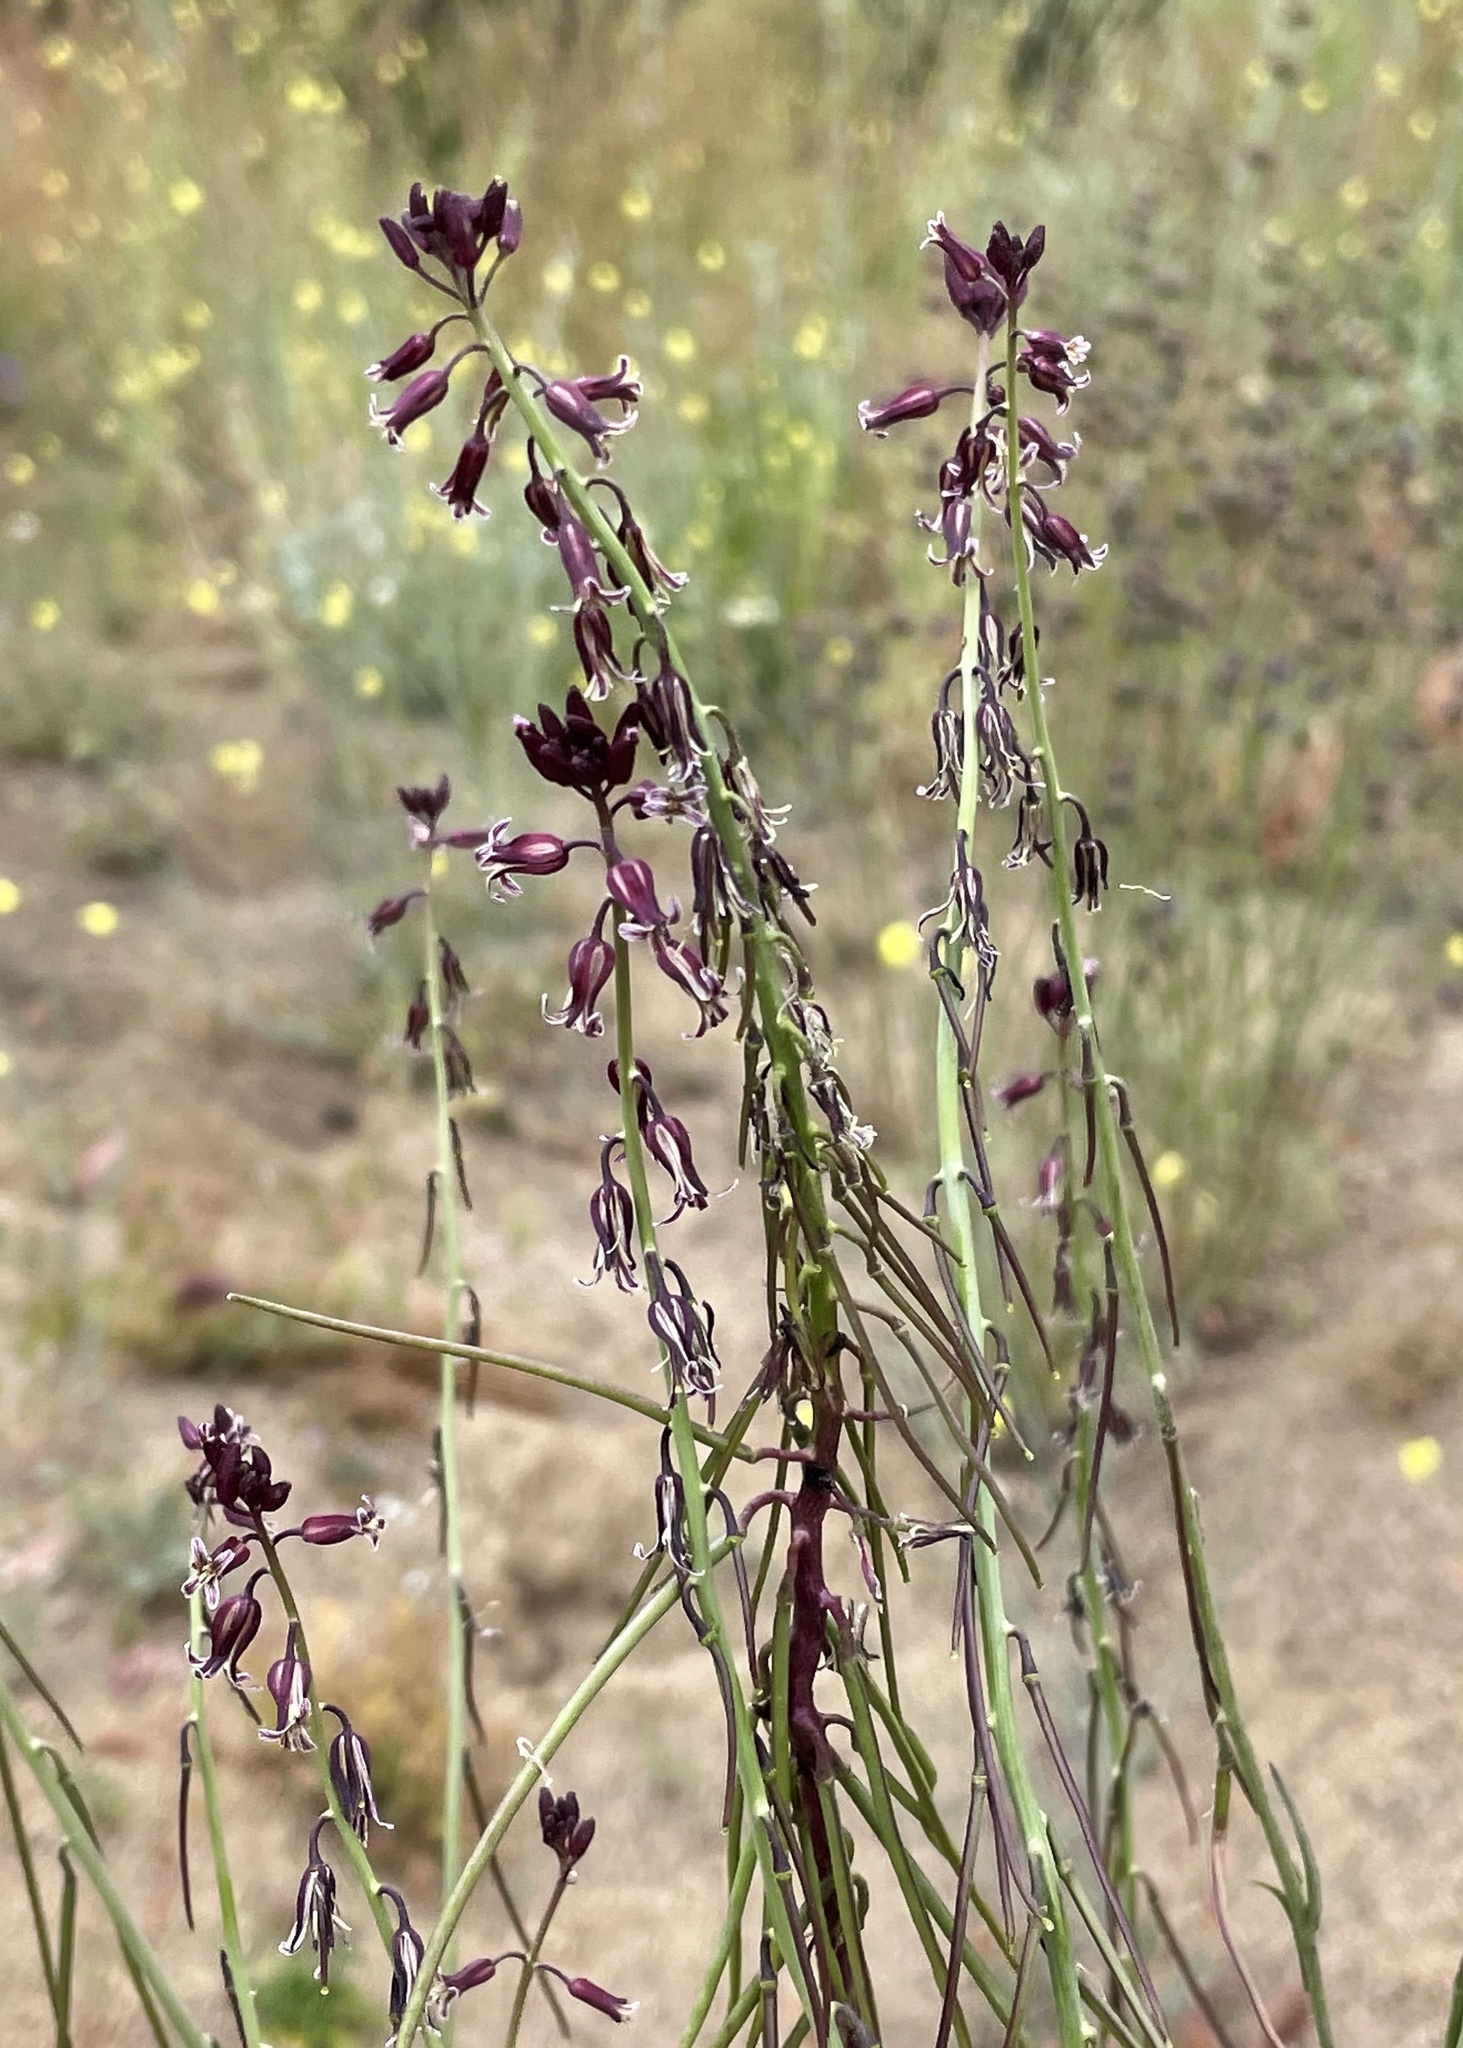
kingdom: Plantae
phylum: Tracheophyta
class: Magnoliopsida
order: Brassicales
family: Brassicaceae
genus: Streptanthus
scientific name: Streptanthus heterophyllus
